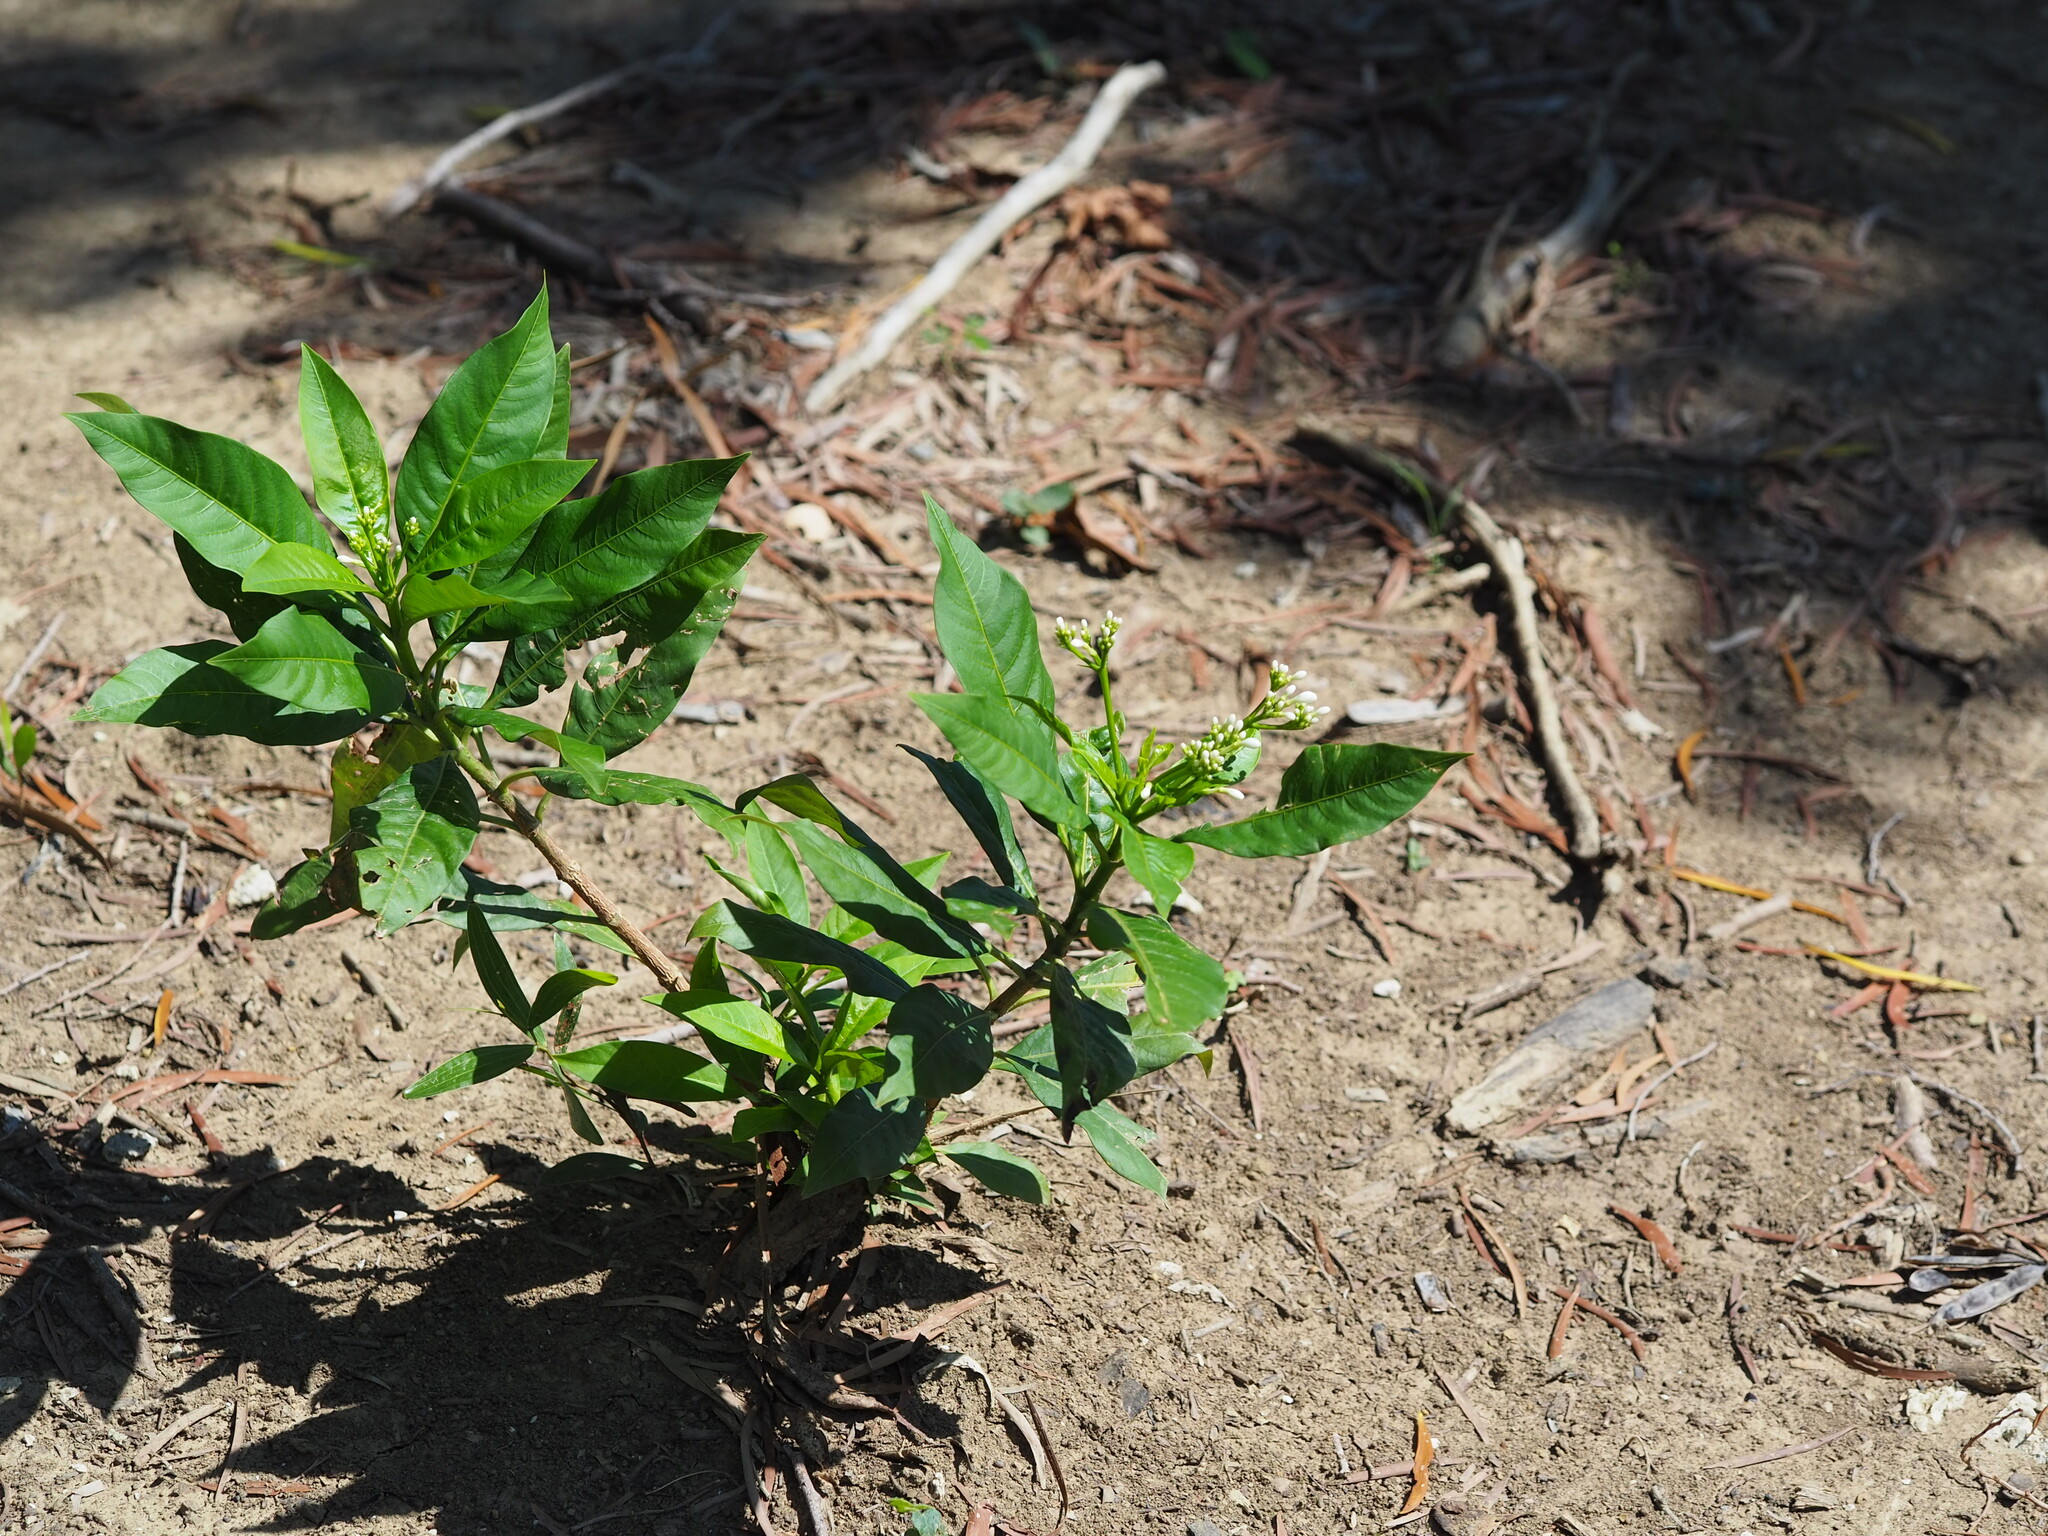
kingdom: Plantae
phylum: Tracheophyta
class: Magnoliopsida
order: Gentianales
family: Apocynaceae
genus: Rauvolfia
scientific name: Rauvolfia verticillata
